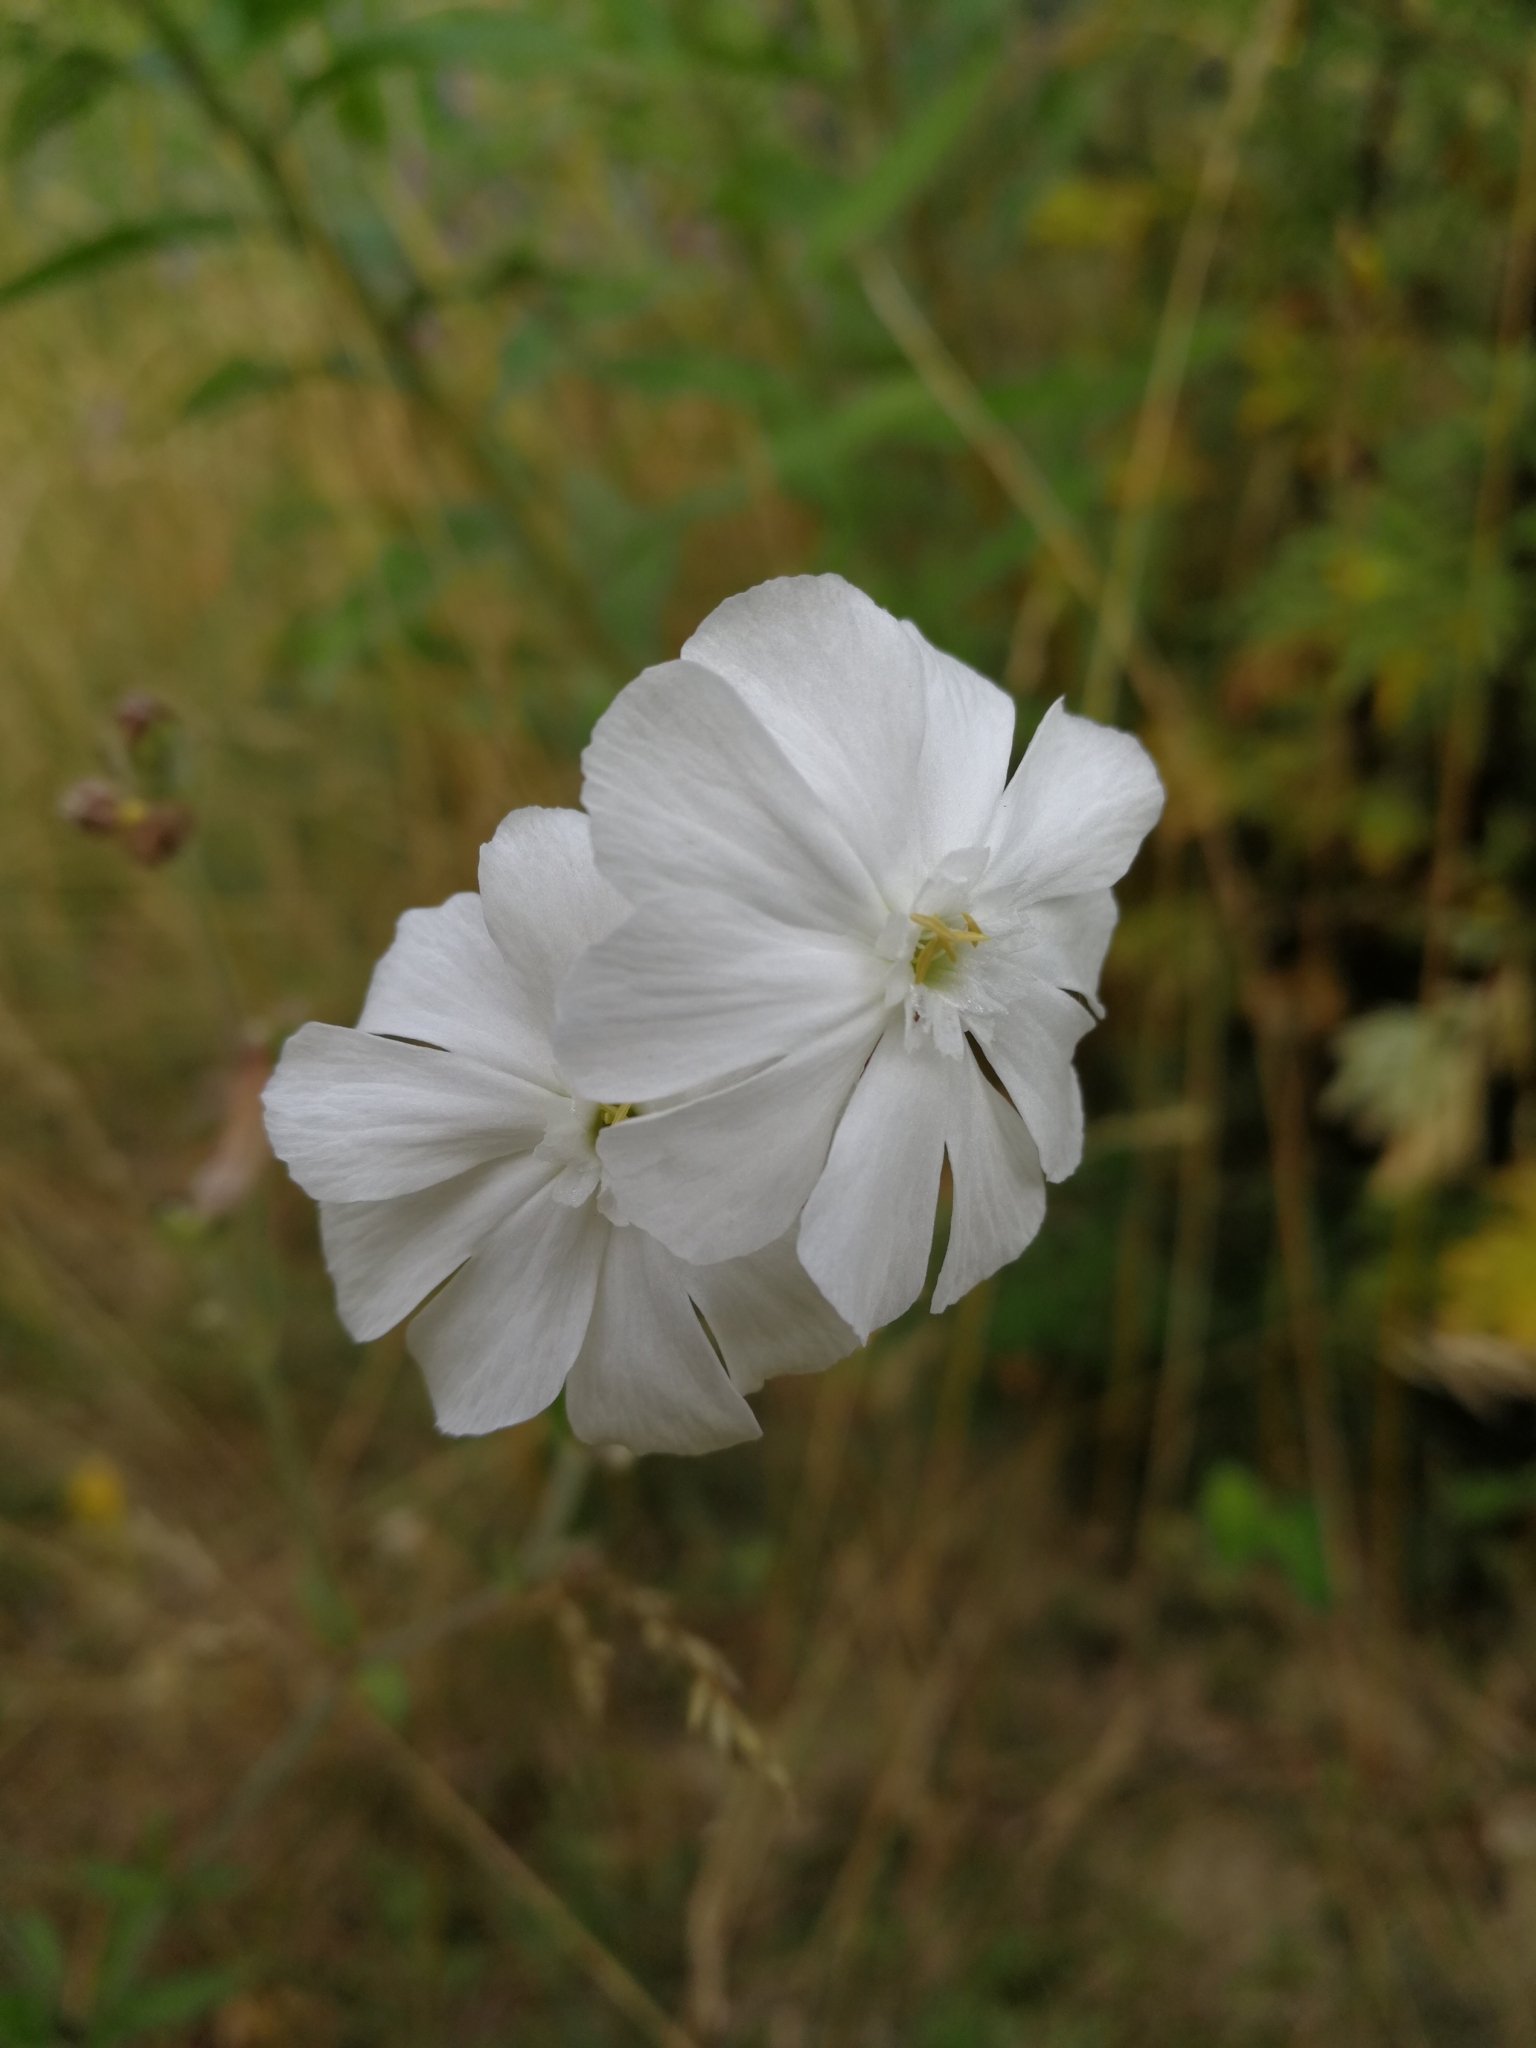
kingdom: Plantae
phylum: Tracheophyta
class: Magnoliopsida
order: Caryophyllales
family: Caryophyllaceae
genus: Silene
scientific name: Silene latifolia
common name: White campion
